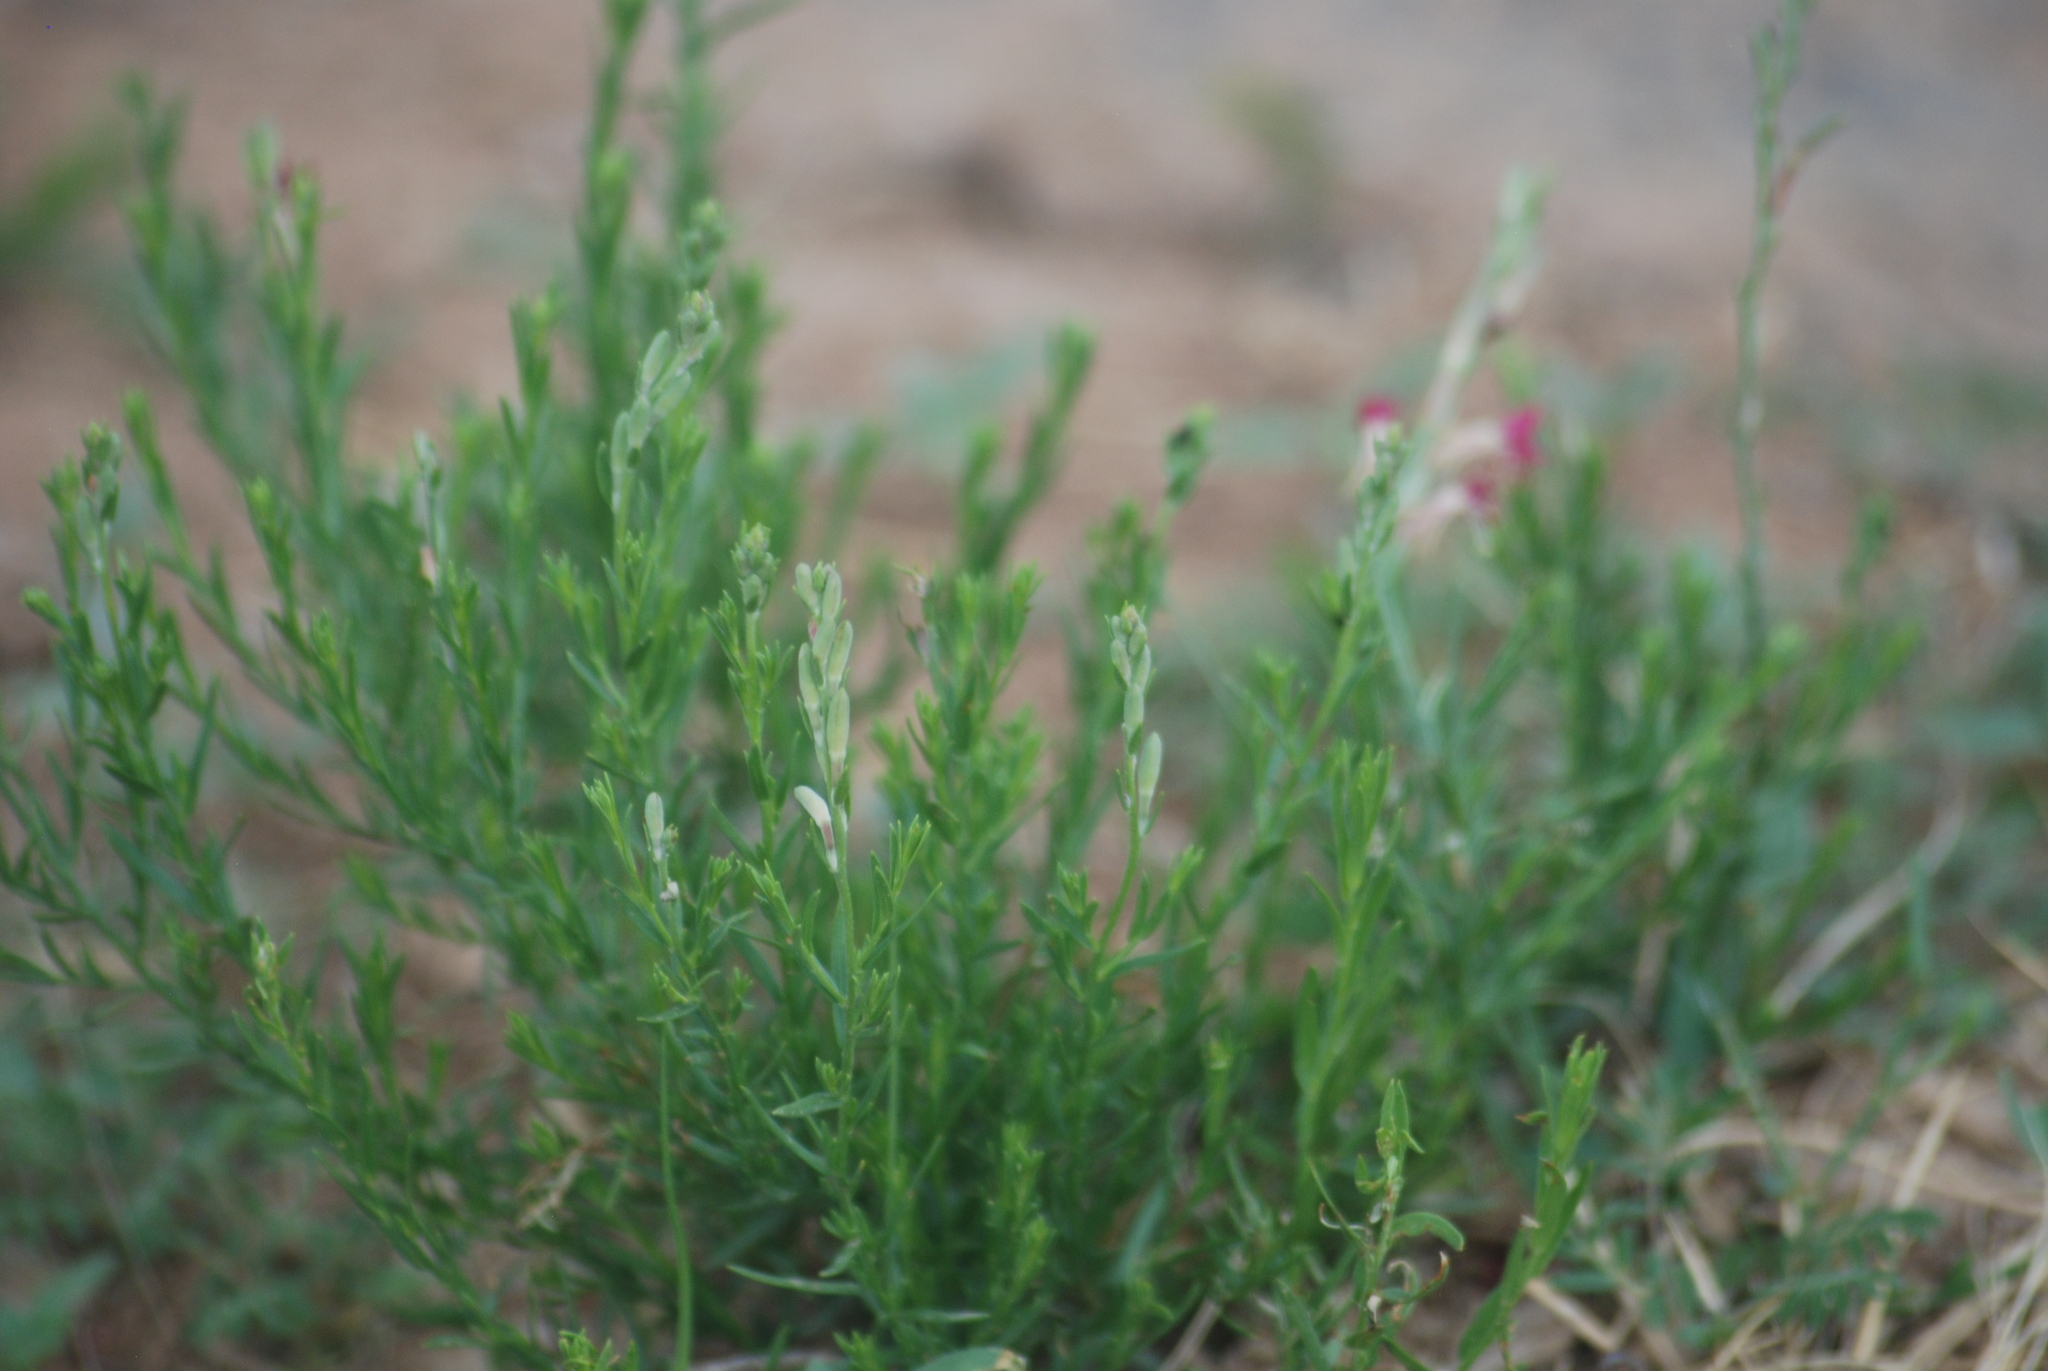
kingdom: Plantae
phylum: Tracheophyta
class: Magnoliopsida
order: Myrtales
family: Onagraceae
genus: Oenothera
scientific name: Oenothera suffrutescens
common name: Scarlet beeblossom
